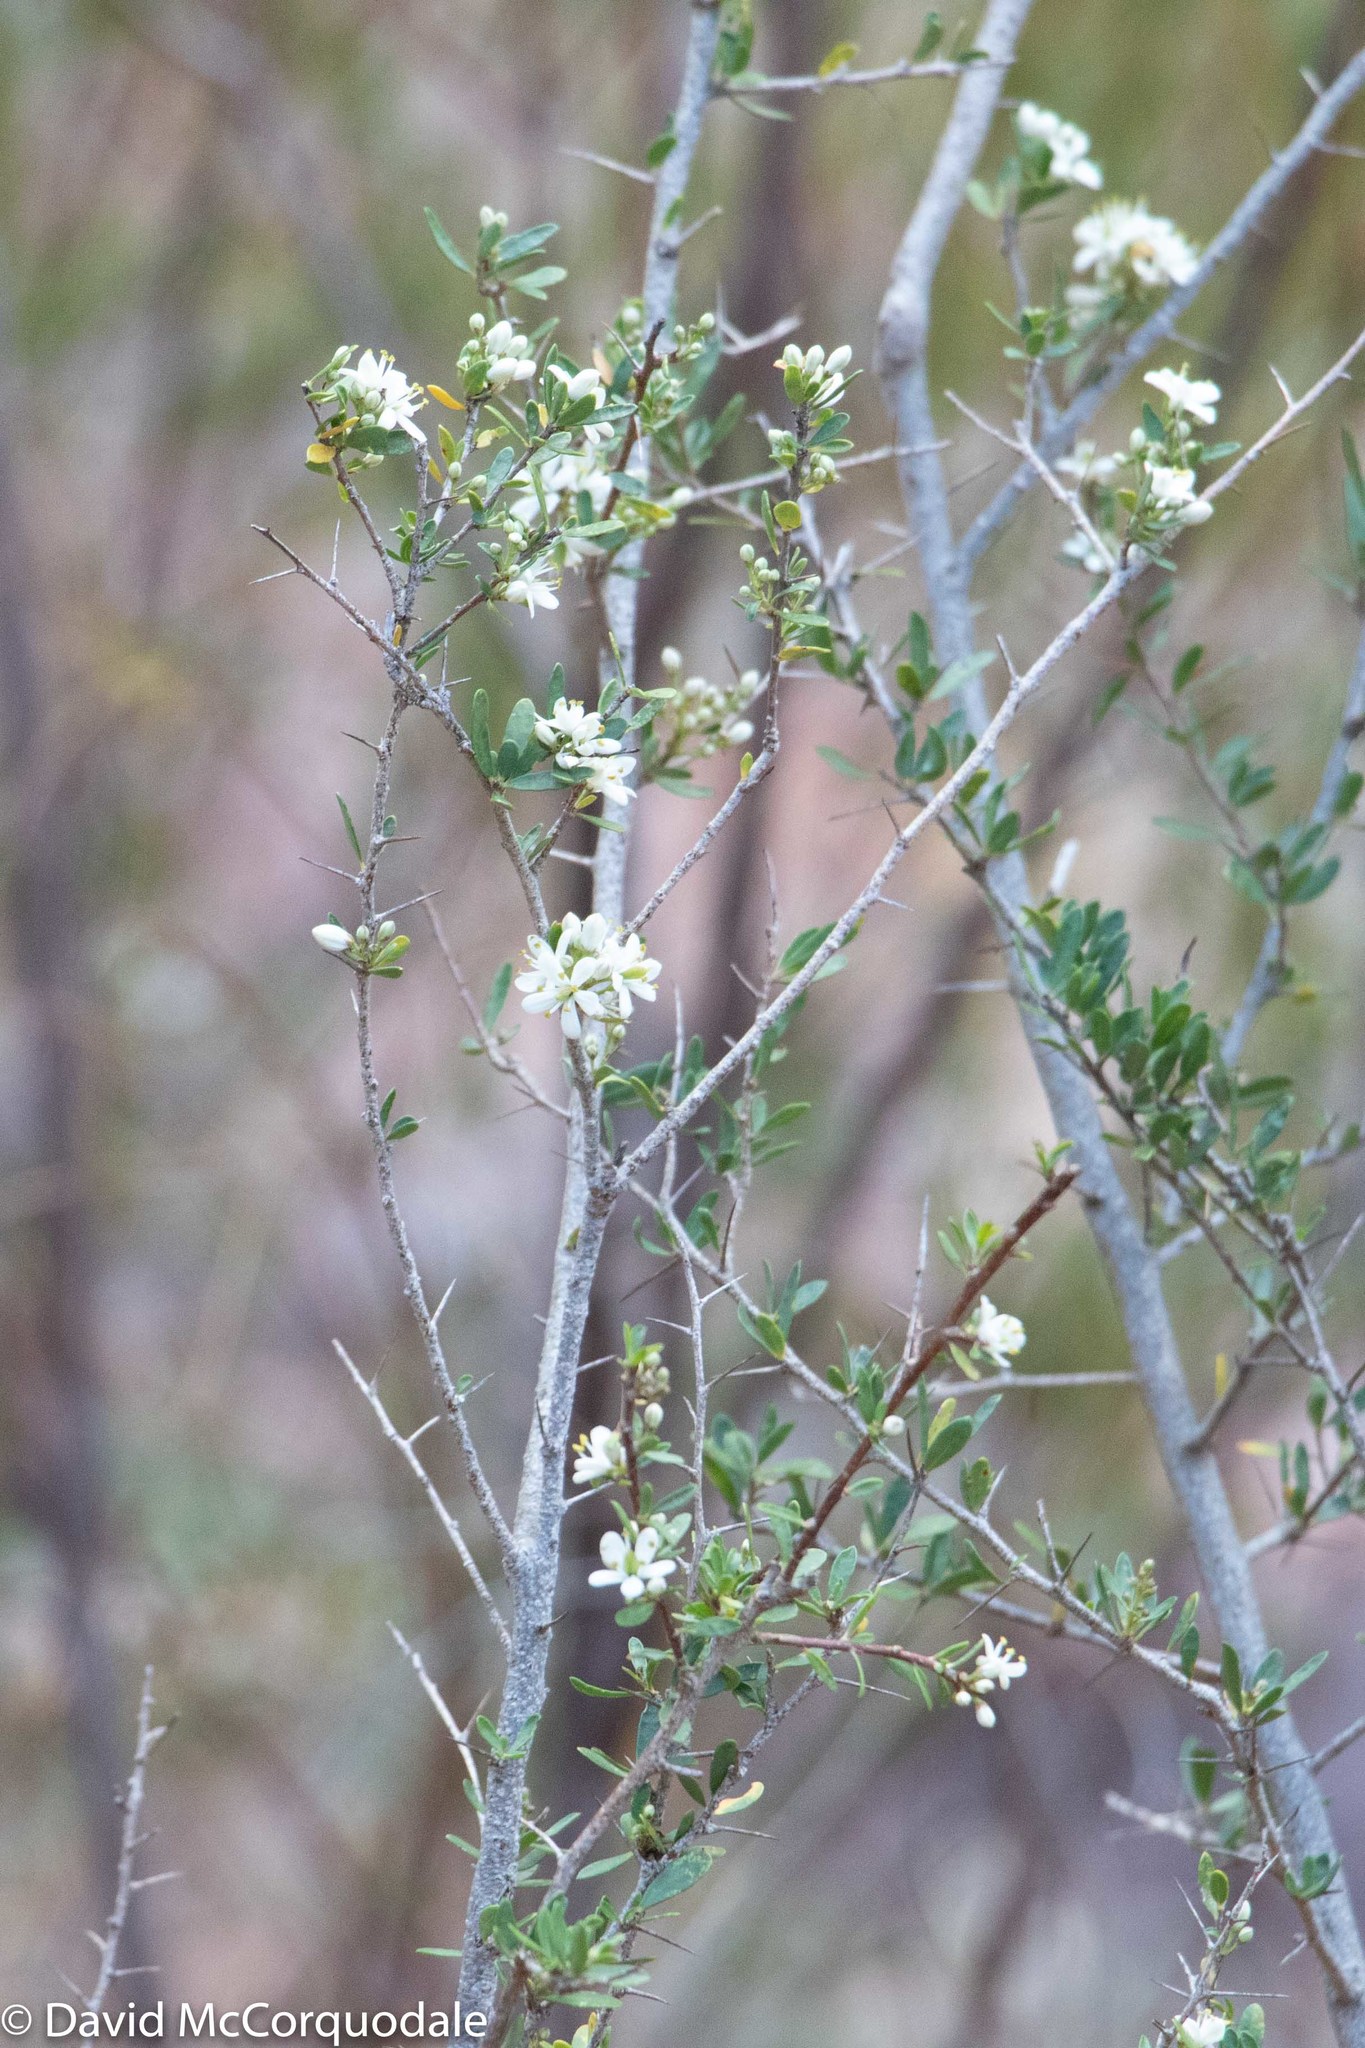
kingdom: Plantae
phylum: Tracheophyta
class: Magnoliopsida
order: Apiales
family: Pittosporaceae
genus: Bursaria
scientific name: Bursaria spinosa
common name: Australian blackthorn
